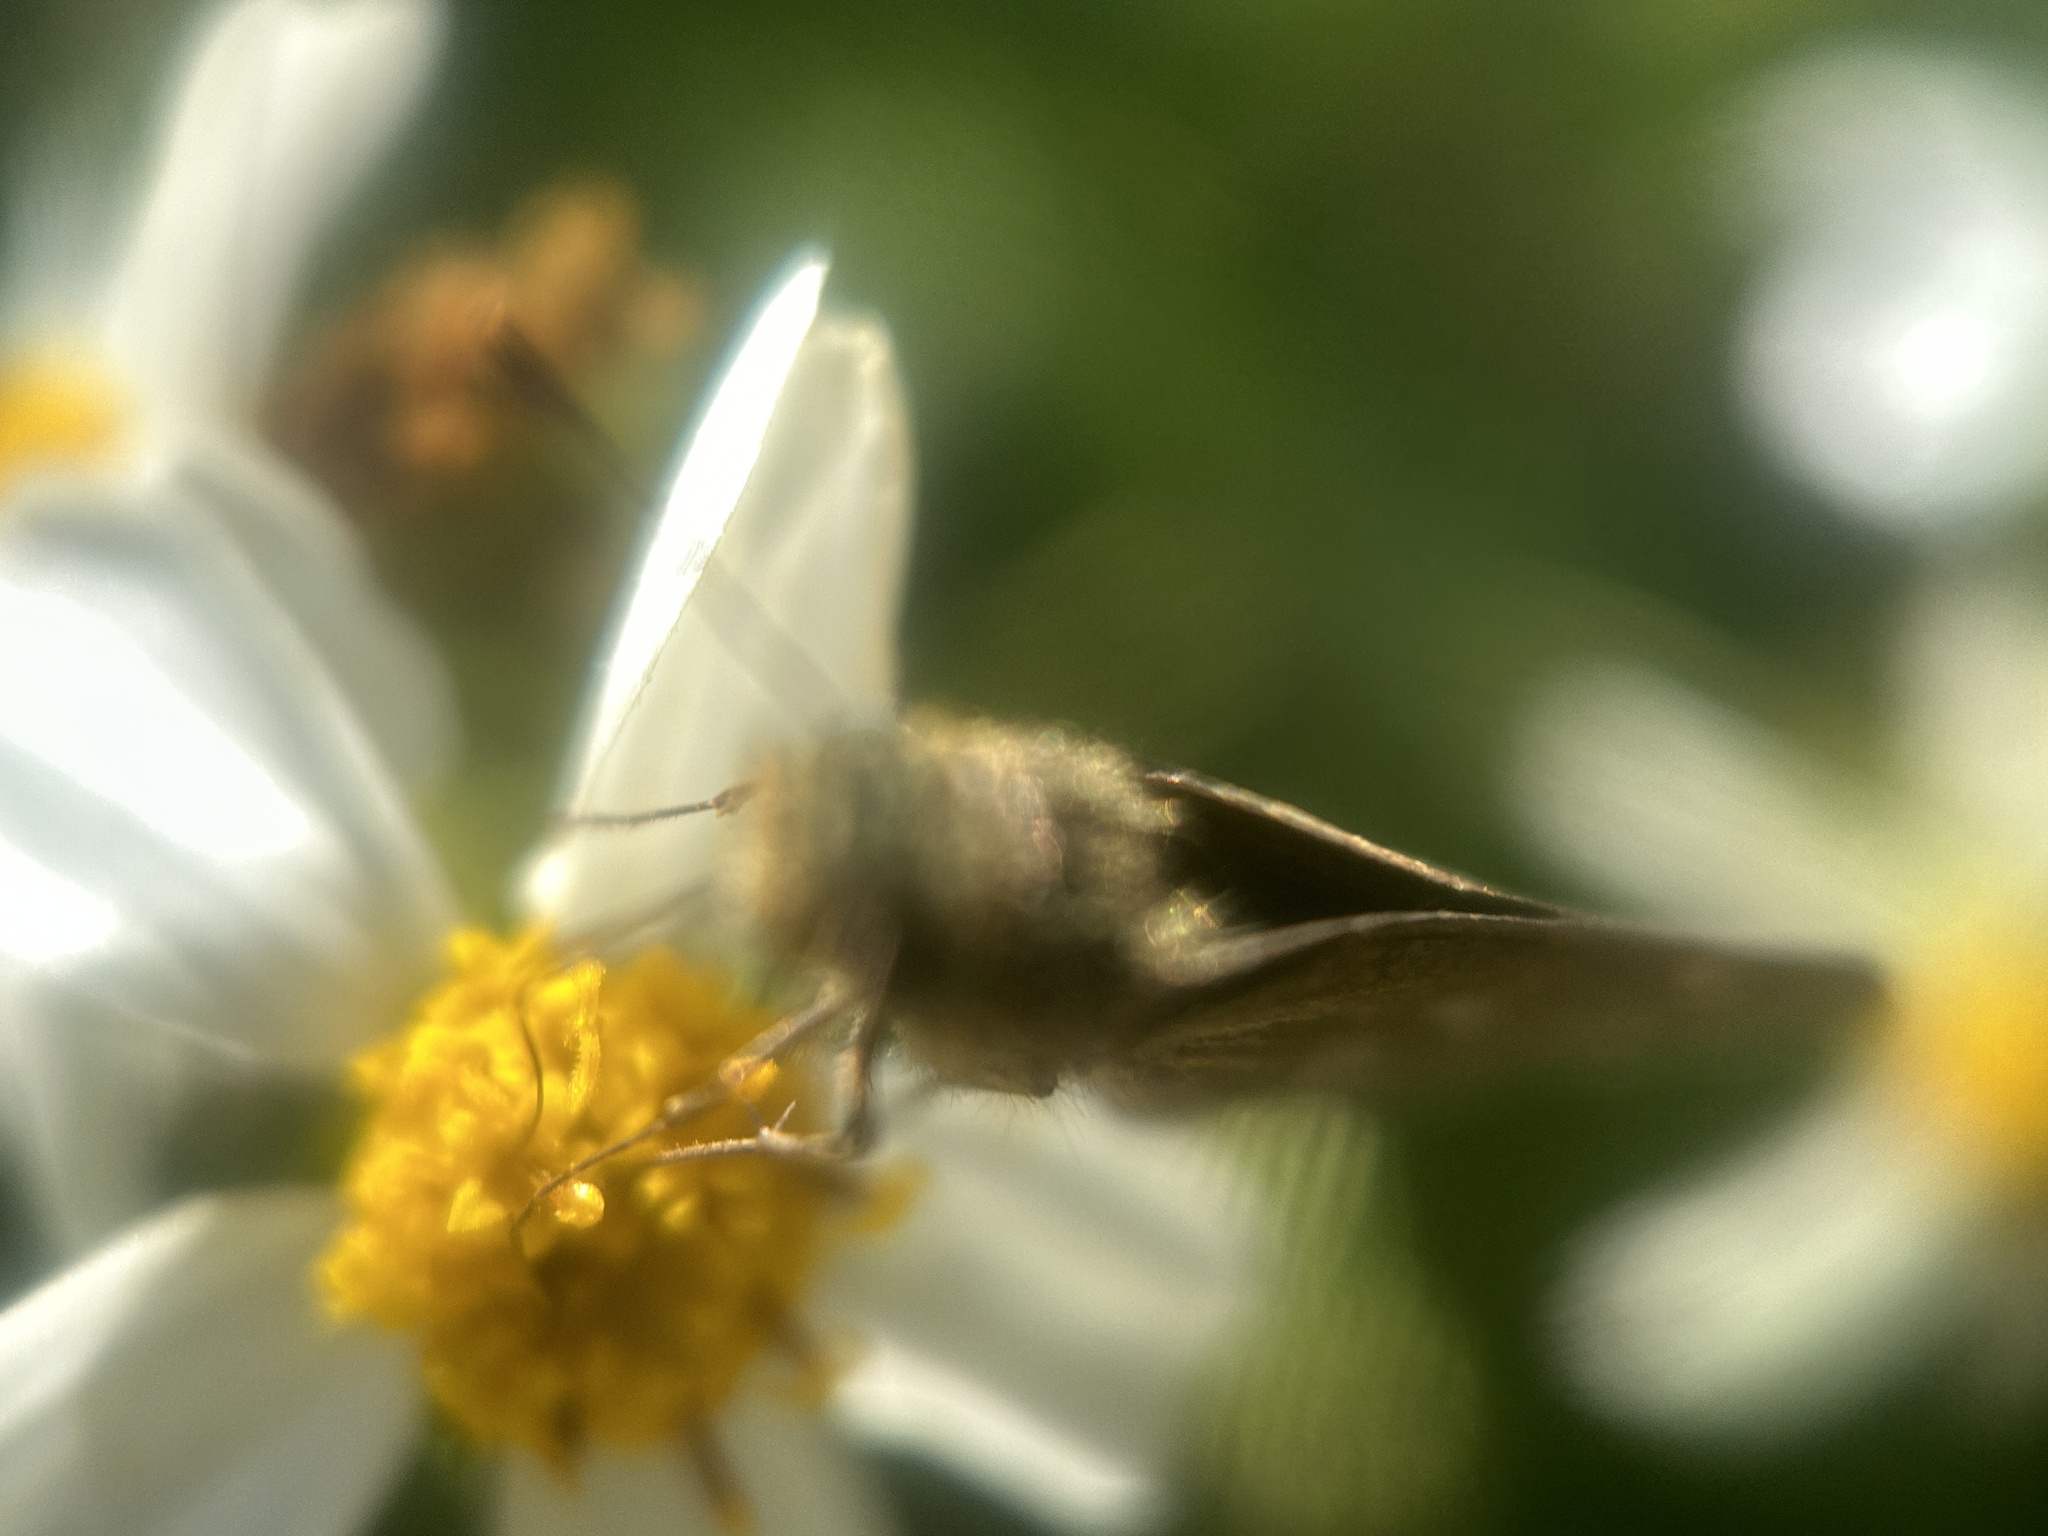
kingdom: Animalia
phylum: Arthropoda
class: Insecta
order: Lepidoptera
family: Hesperiidae
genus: Panoquina
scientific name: Panoquina panoquinoides
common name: Beach skipper
